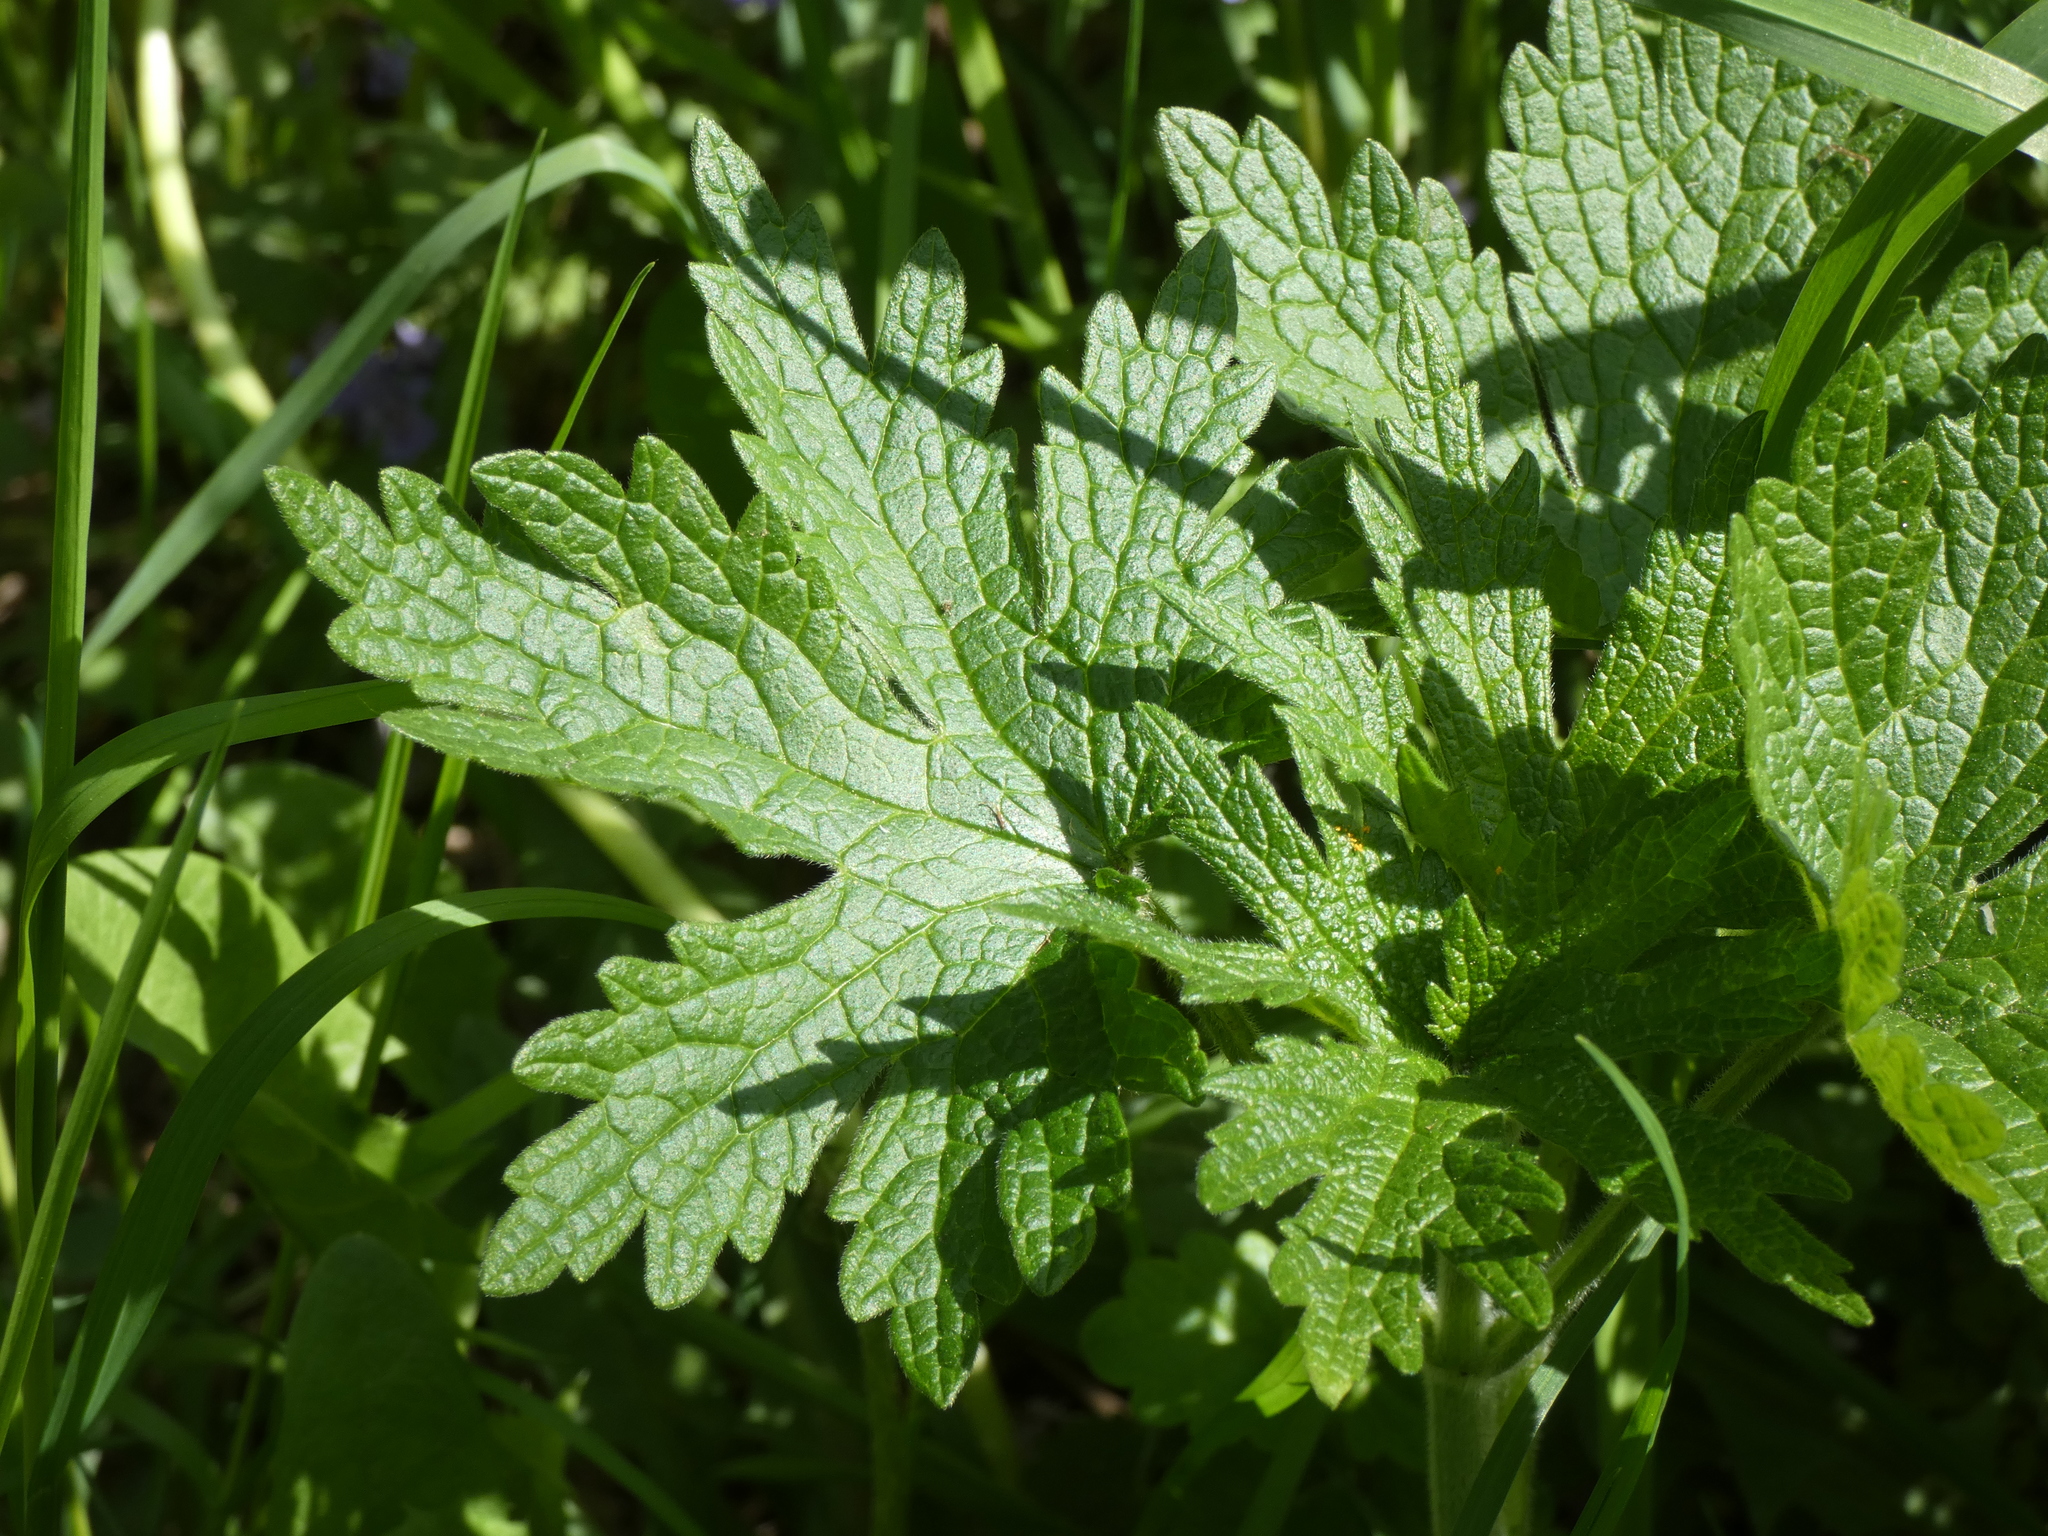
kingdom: Plantae
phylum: Tracheophyta
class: Magnoliopsida
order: Lamiales
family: Lamiaceae
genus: Leonurus
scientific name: Leonurus quinquelobatus
